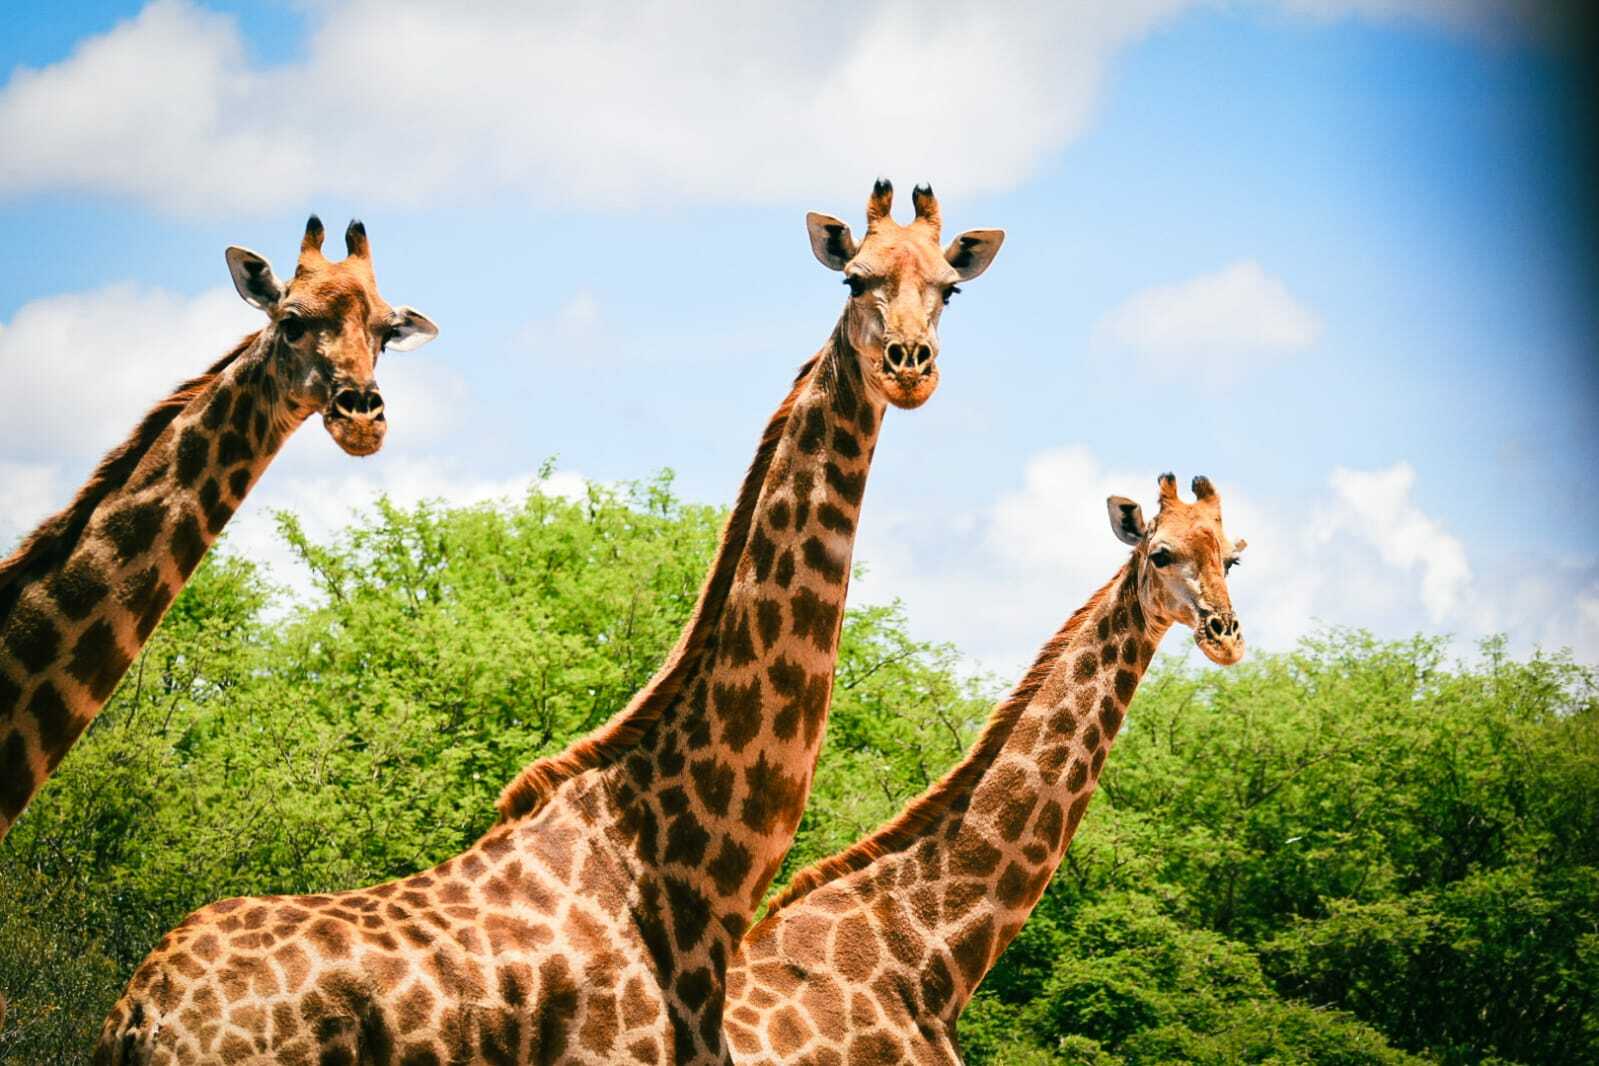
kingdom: Animalia
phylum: Chordata
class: Mammalia
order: Artiodactyla
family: Giraffidae
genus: Giraffa
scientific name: Giraffa giraffa
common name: Southern giraffe
